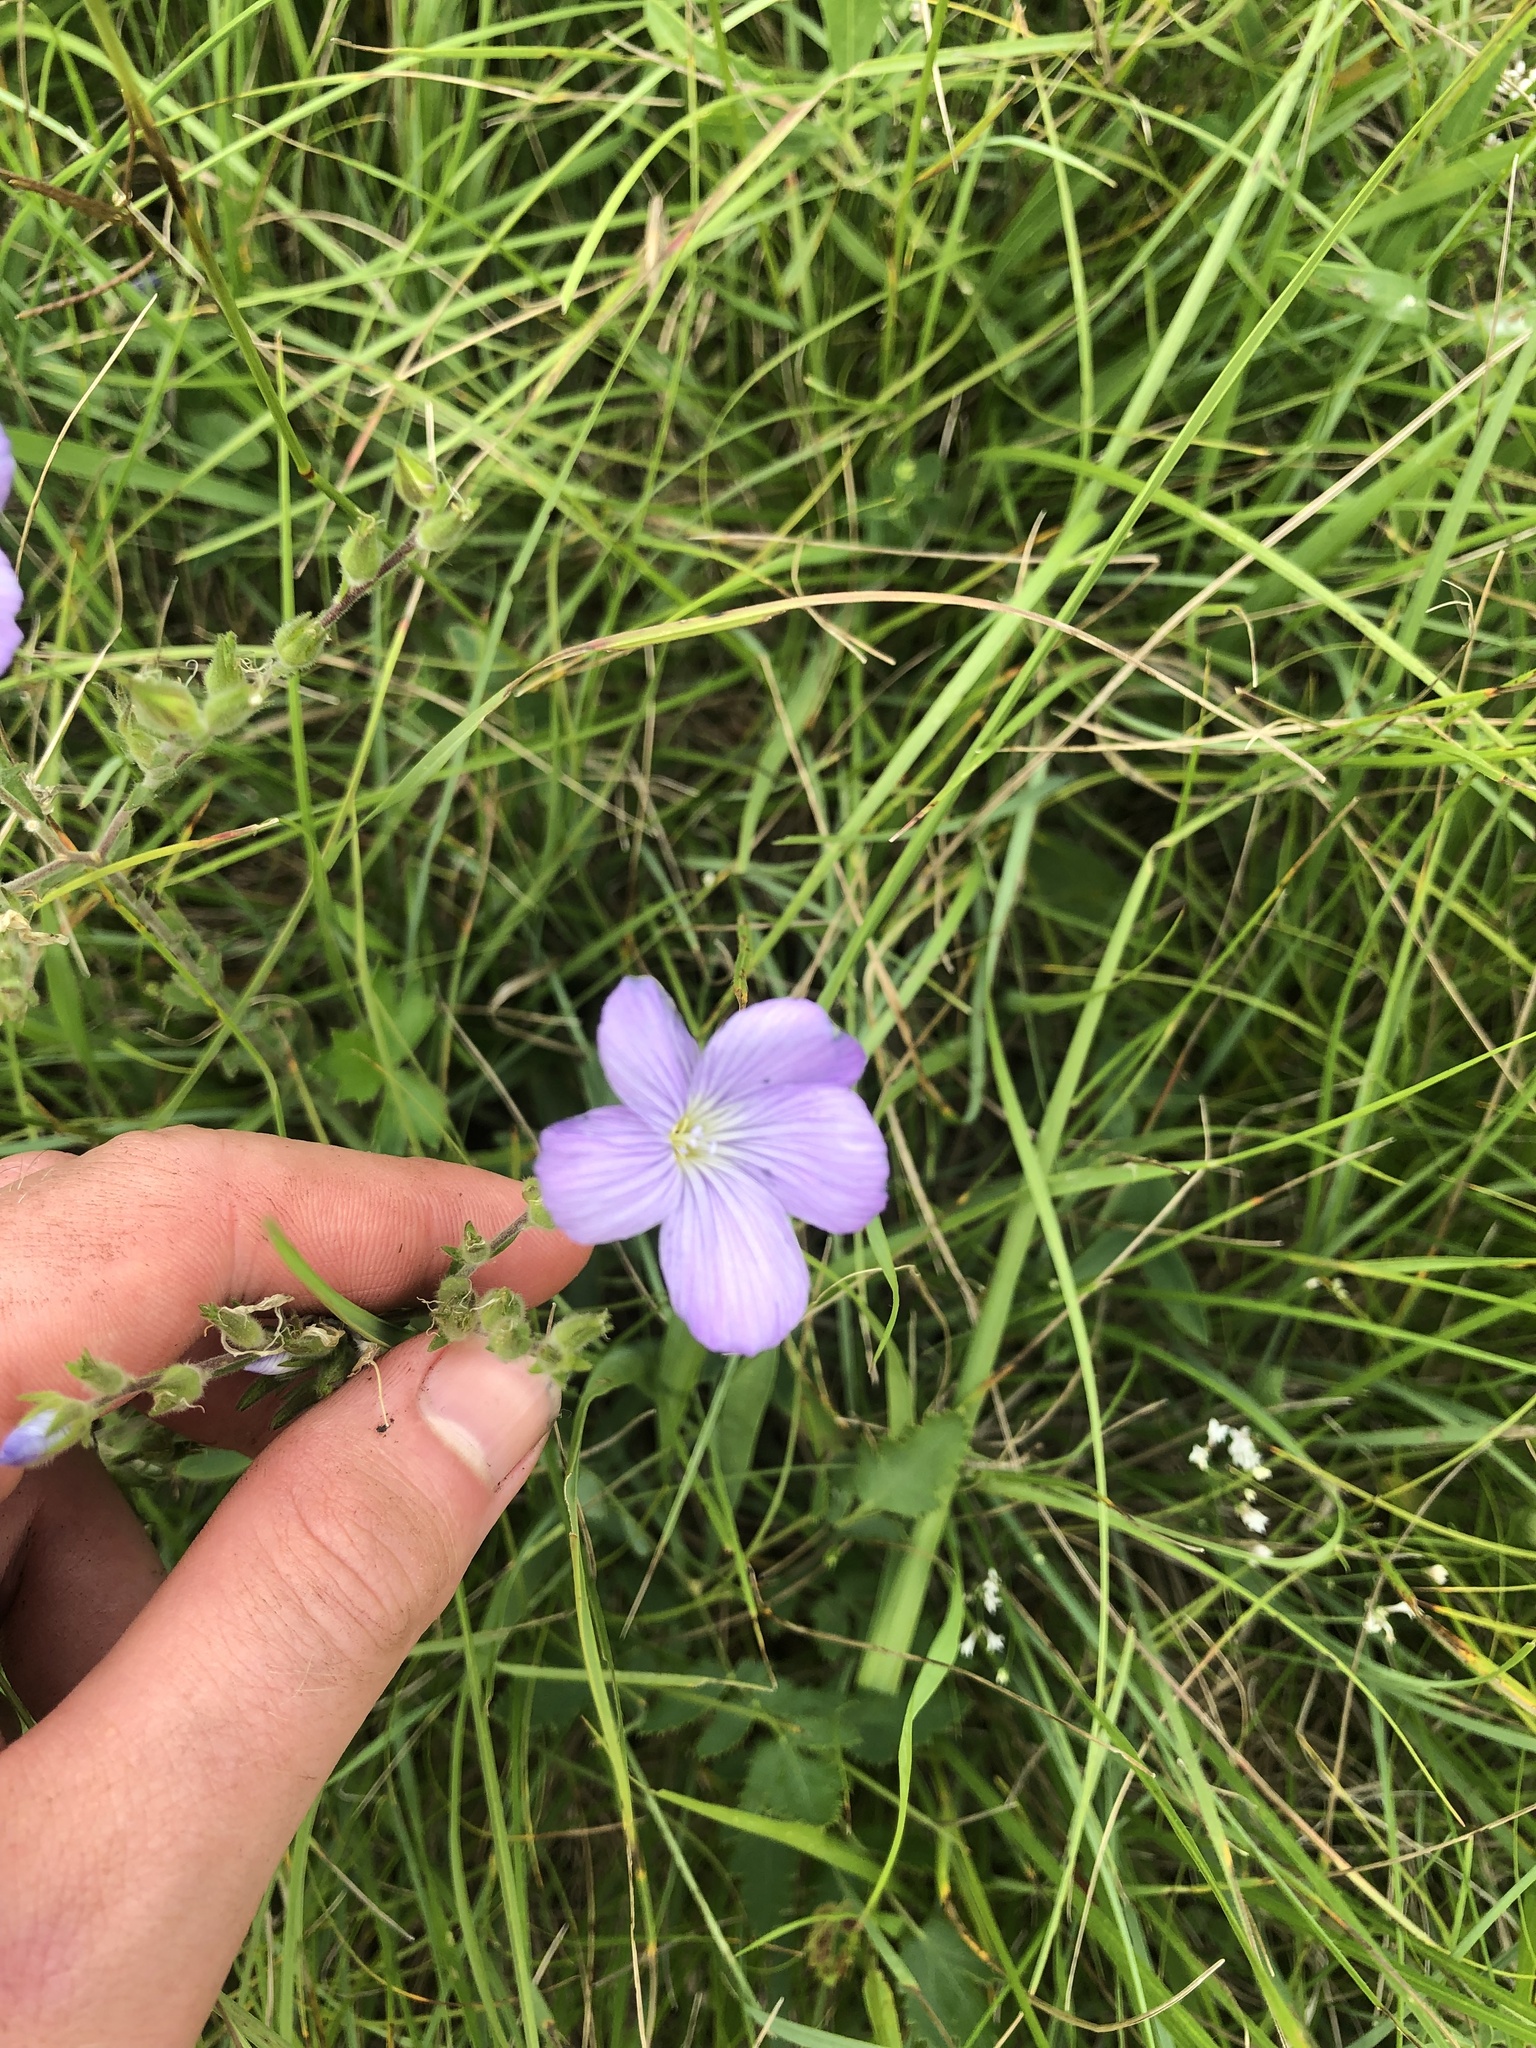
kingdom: Plantae
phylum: Tracheophyta
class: Magnoliopsida
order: Malpighiales
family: Linaceae
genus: Linum
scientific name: Linum hirsutum
